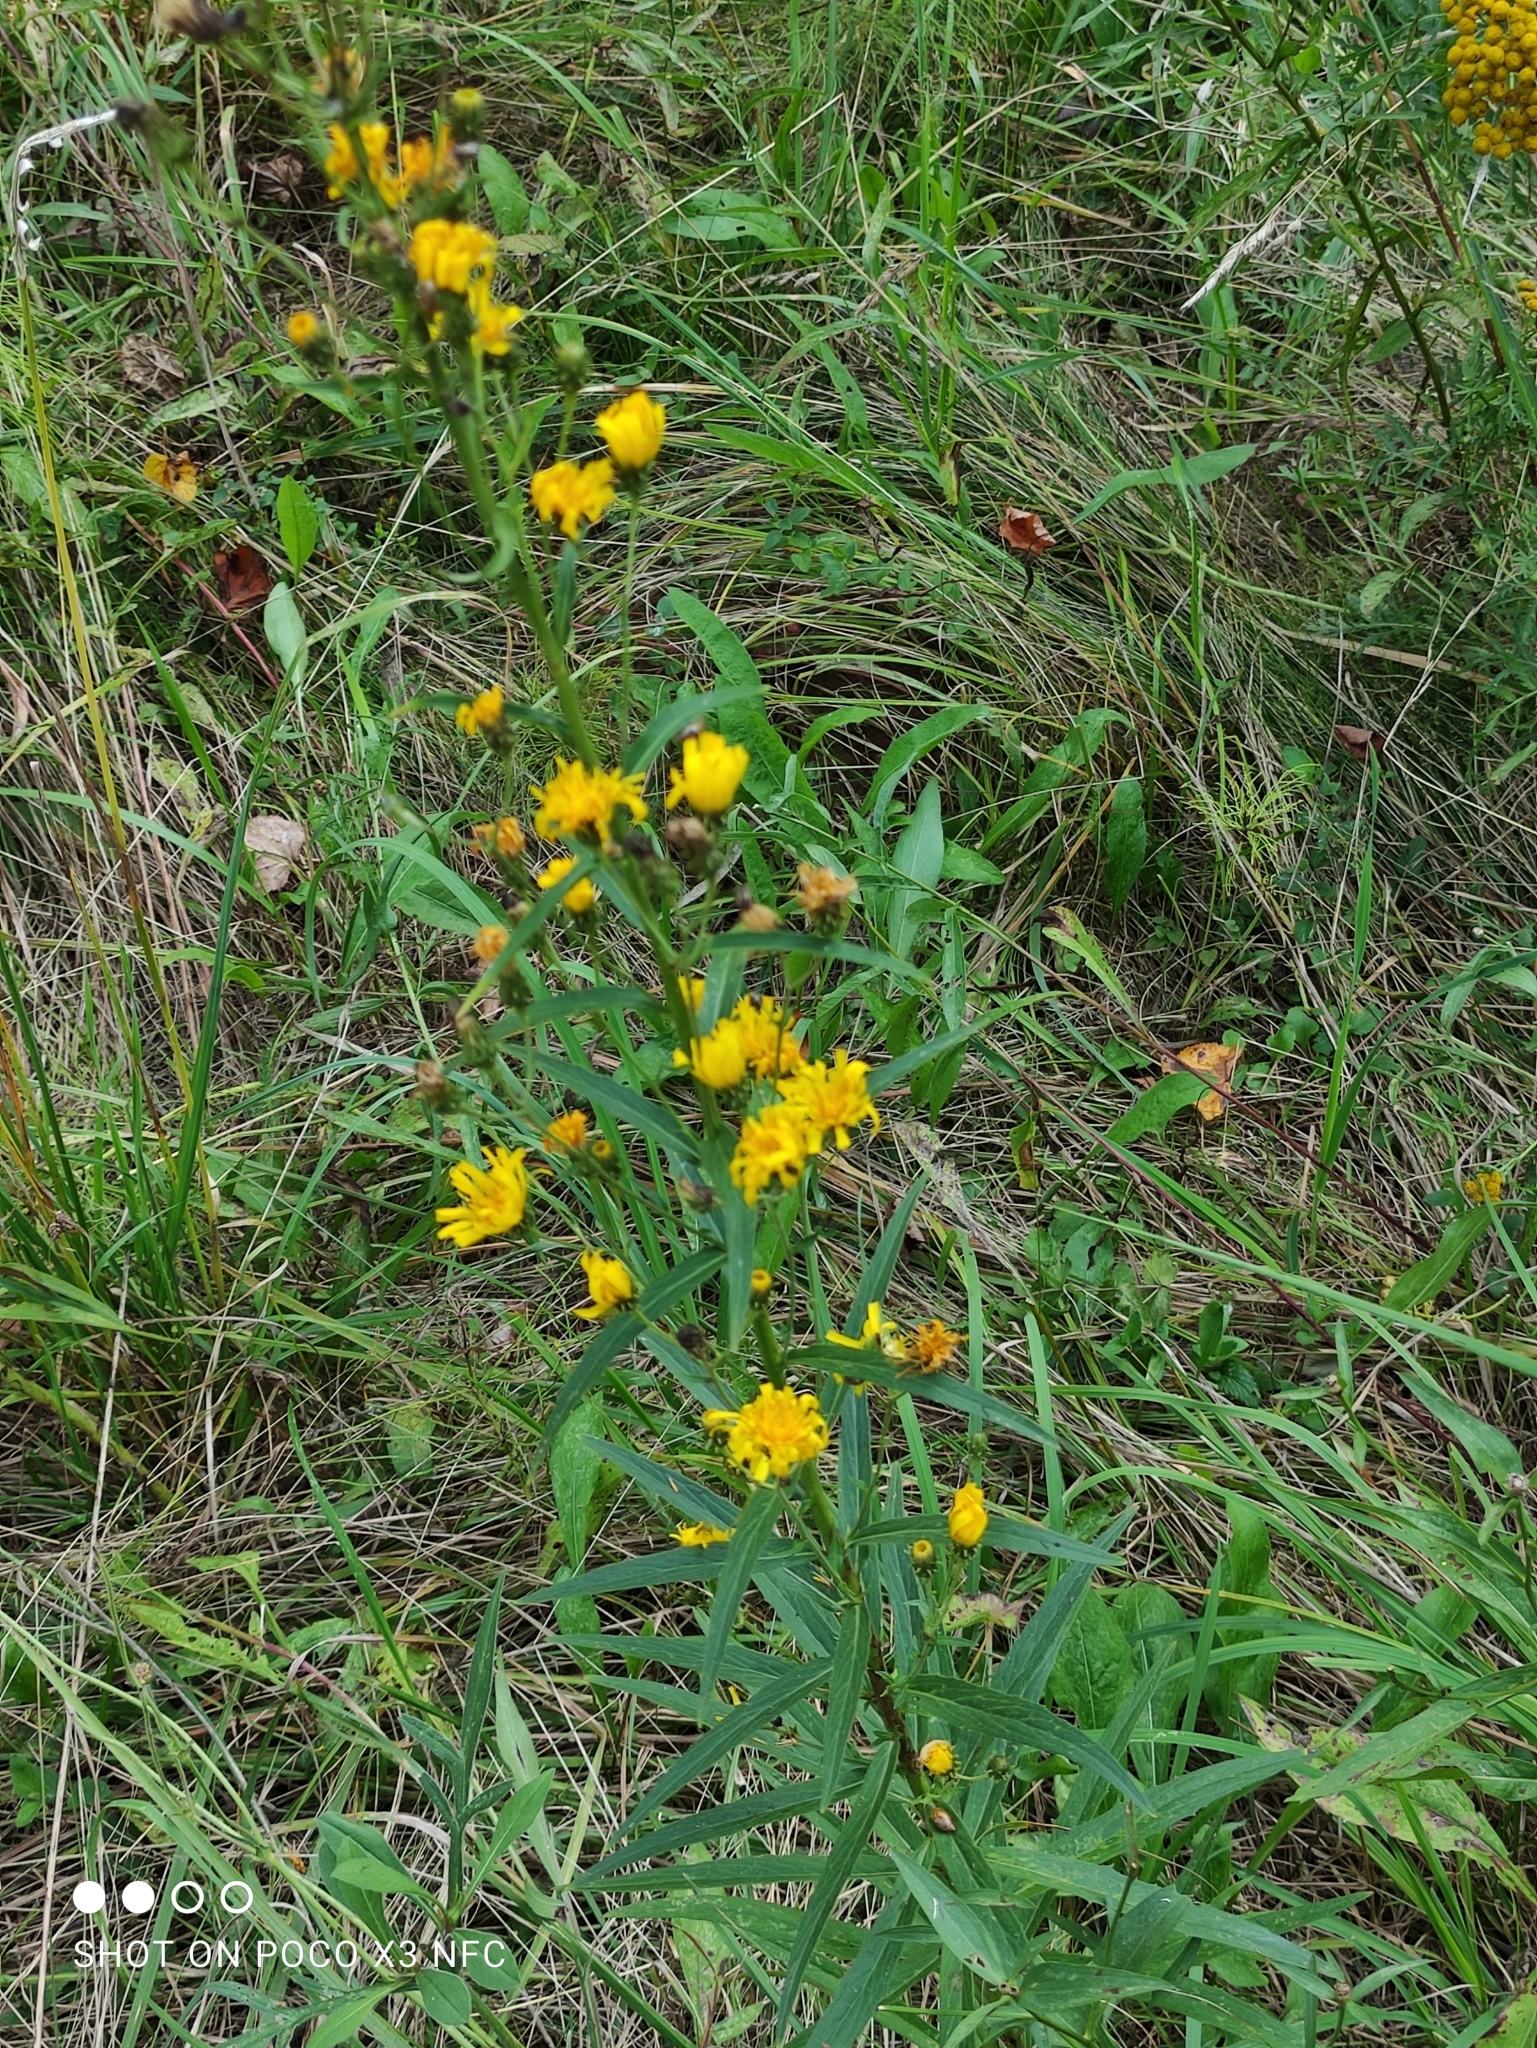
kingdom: Plantae
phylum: Tracheophyta
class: Magnoliopsida
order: Asterales
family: Asteraceae
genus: Hieracium
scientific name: Hieracium umbellatum
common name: Northern hawkweed
